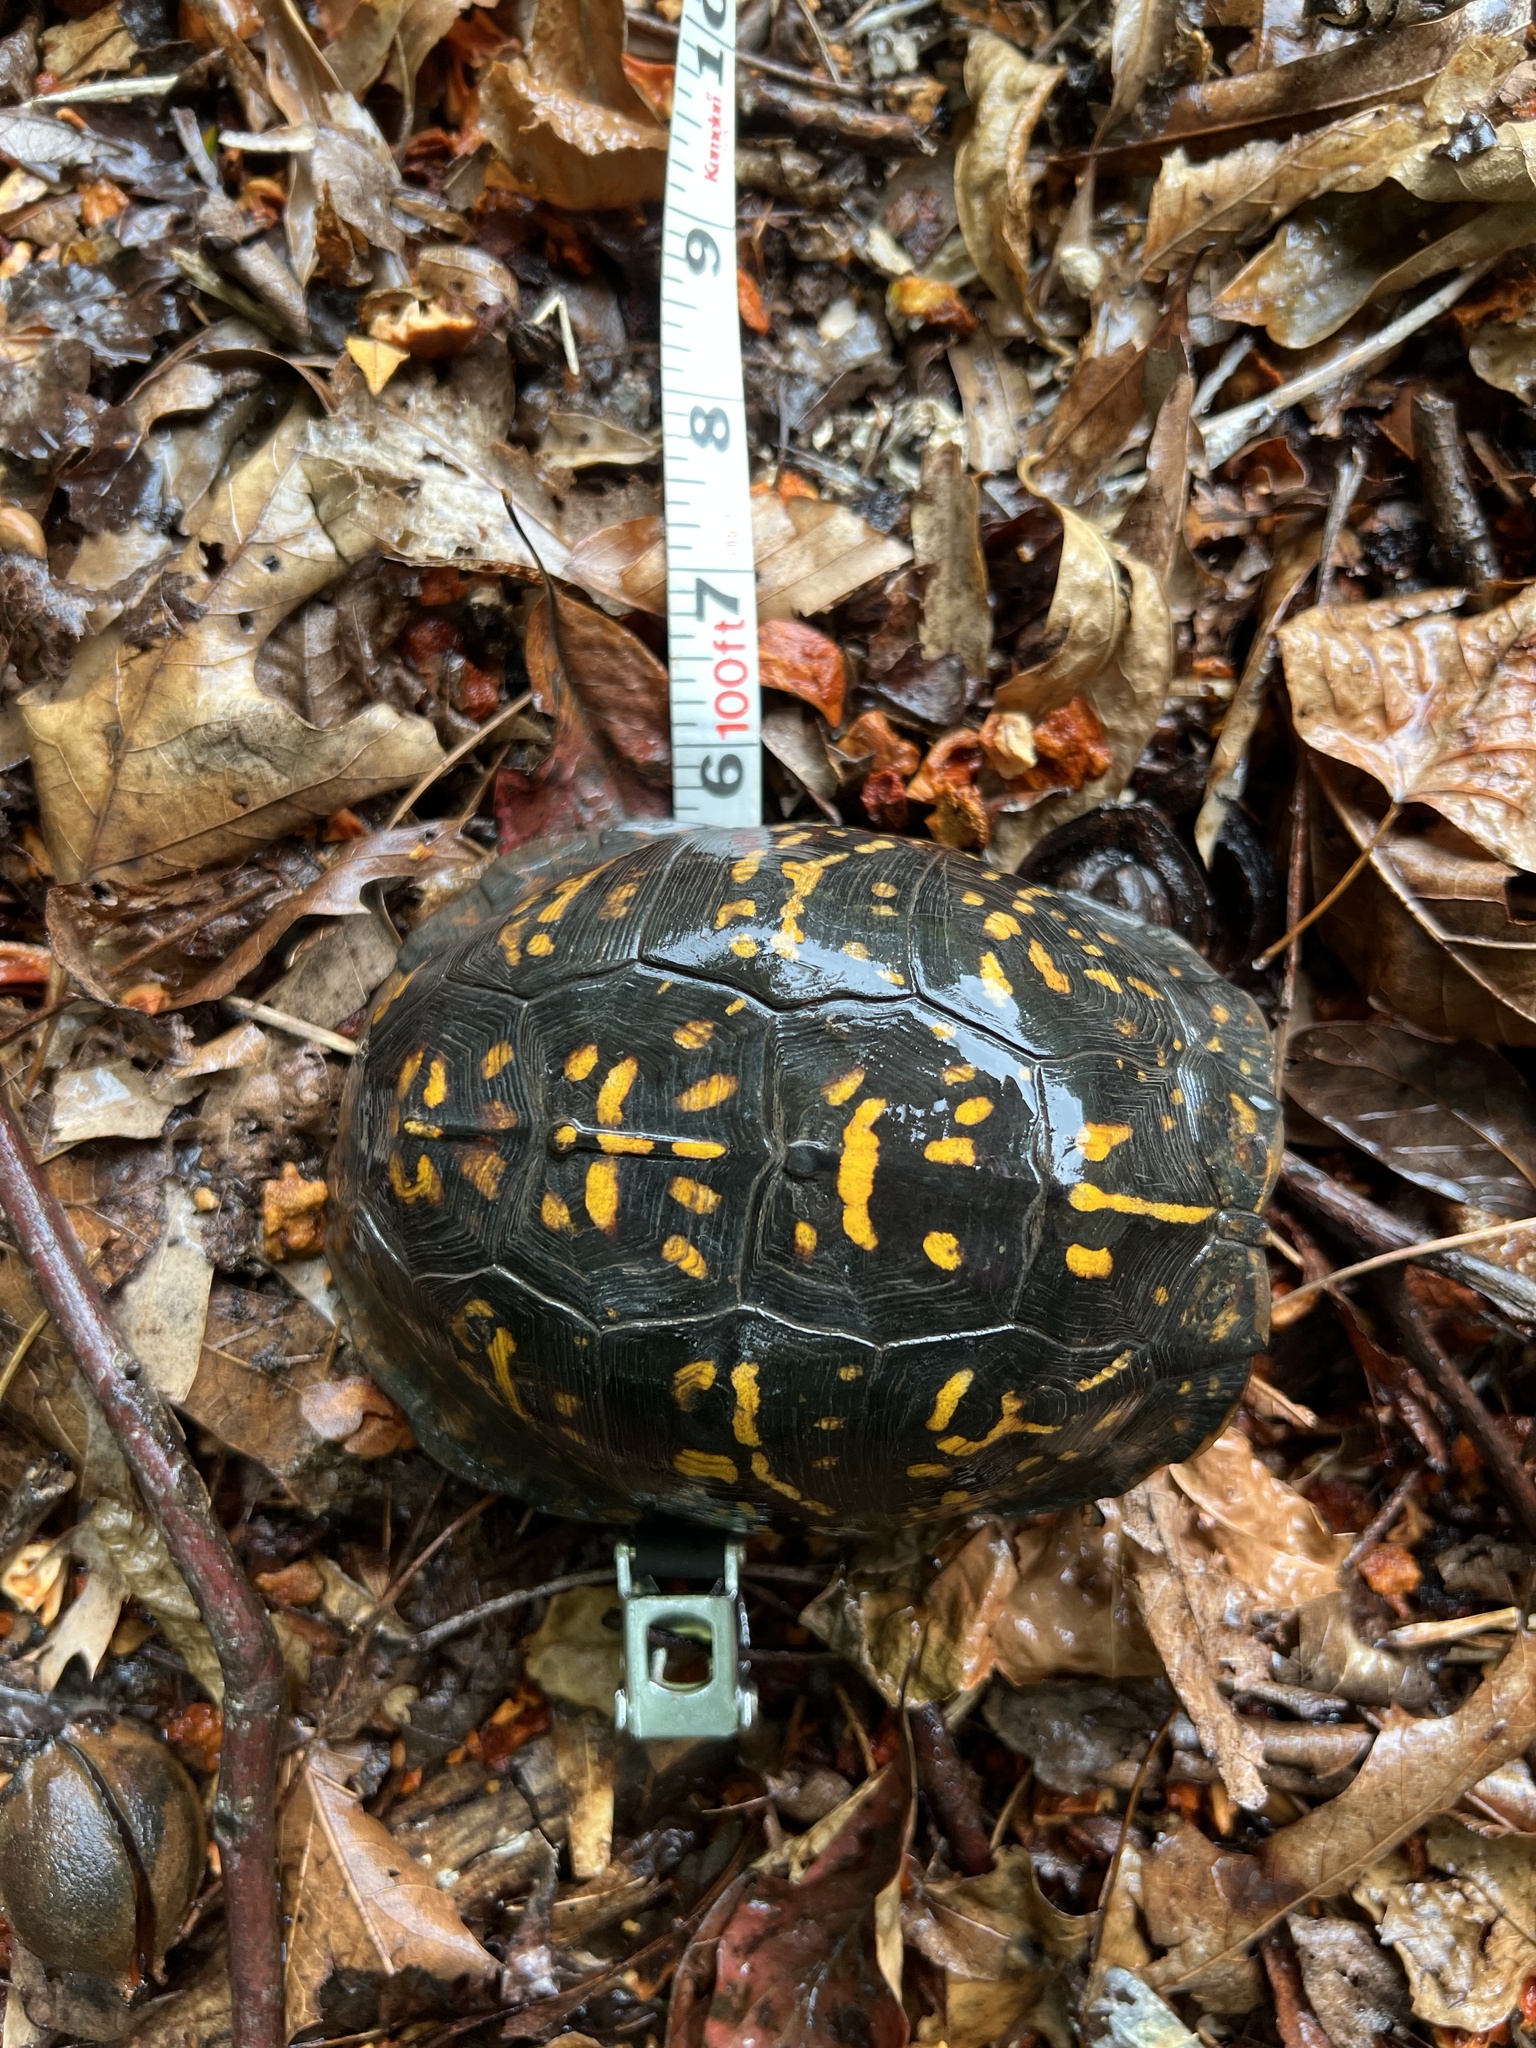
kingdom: Animalia
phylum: Chordata
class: Testudines
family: Emydidae
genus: Terrapene
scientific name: Terrapene carolina
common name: Common box turtle
